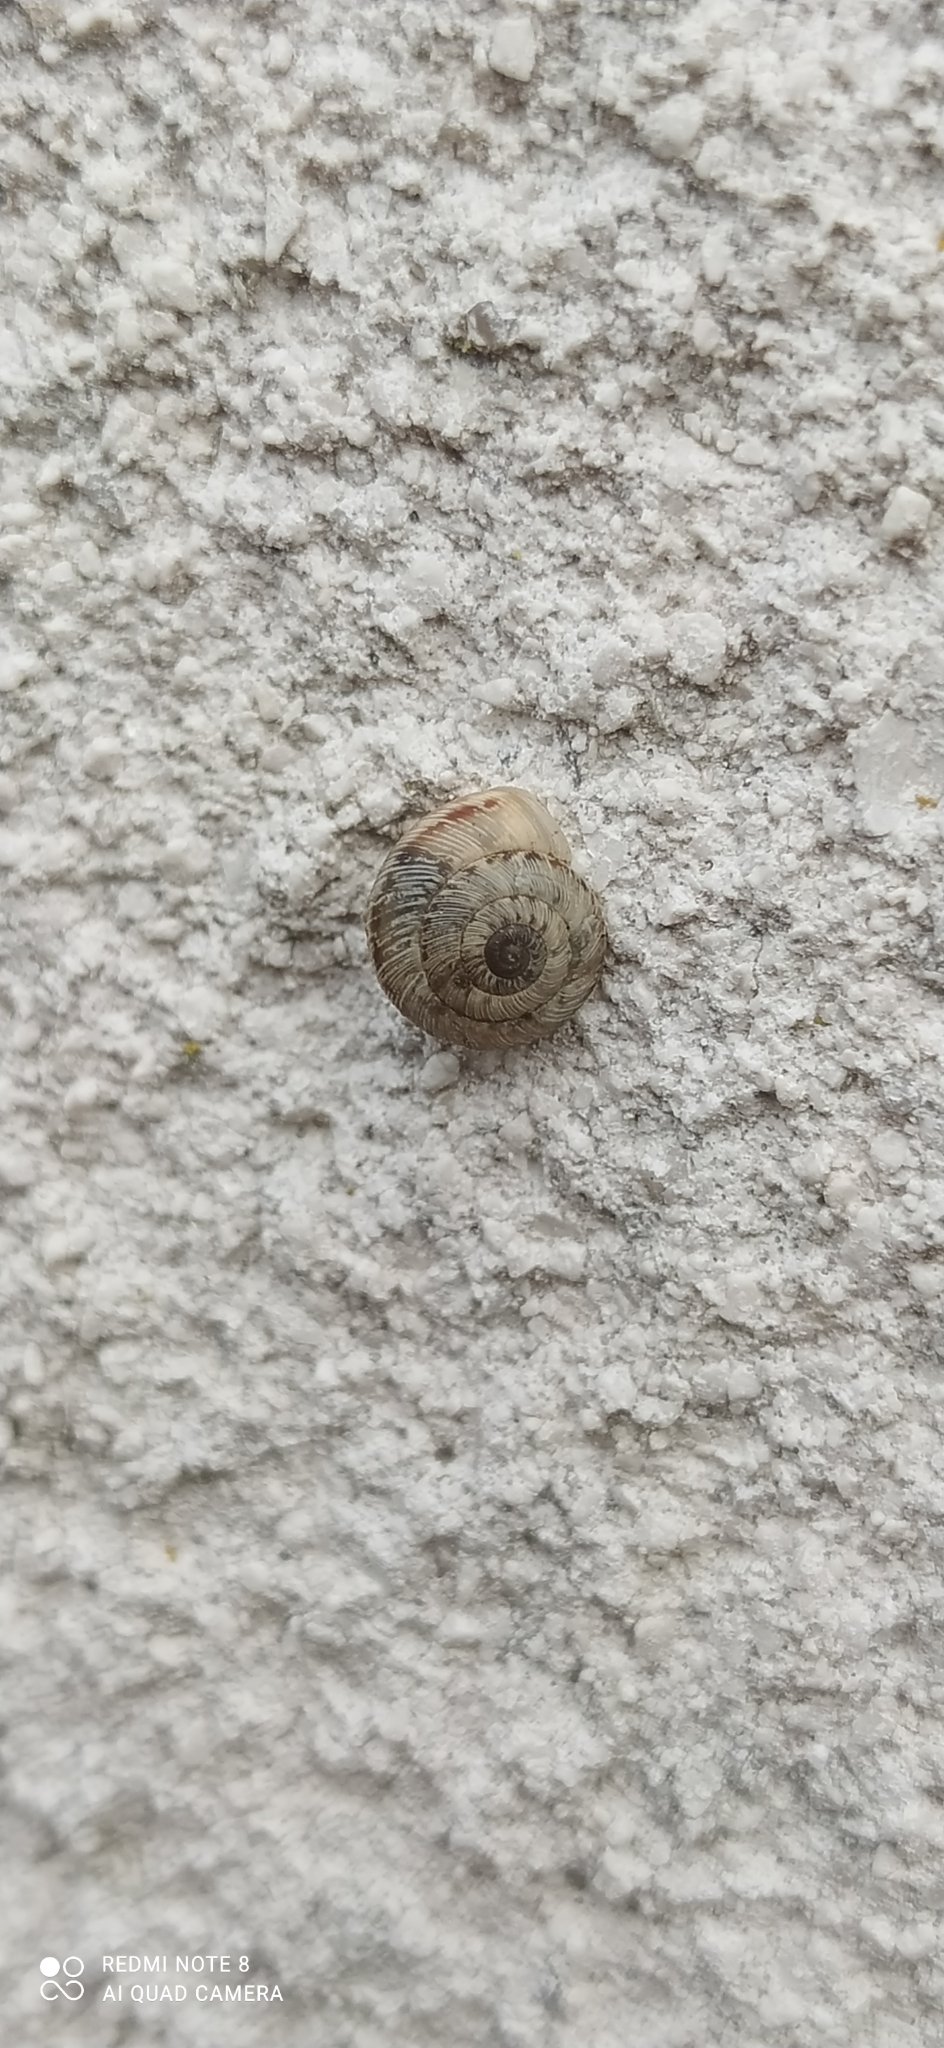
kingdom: Animalia
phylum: Mollusca
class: Gastropoda
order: Stylommatophora
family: Geomitridae
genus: Xeroplexa
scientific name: Xeroplexa intersecta
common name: Wrinkled snail
